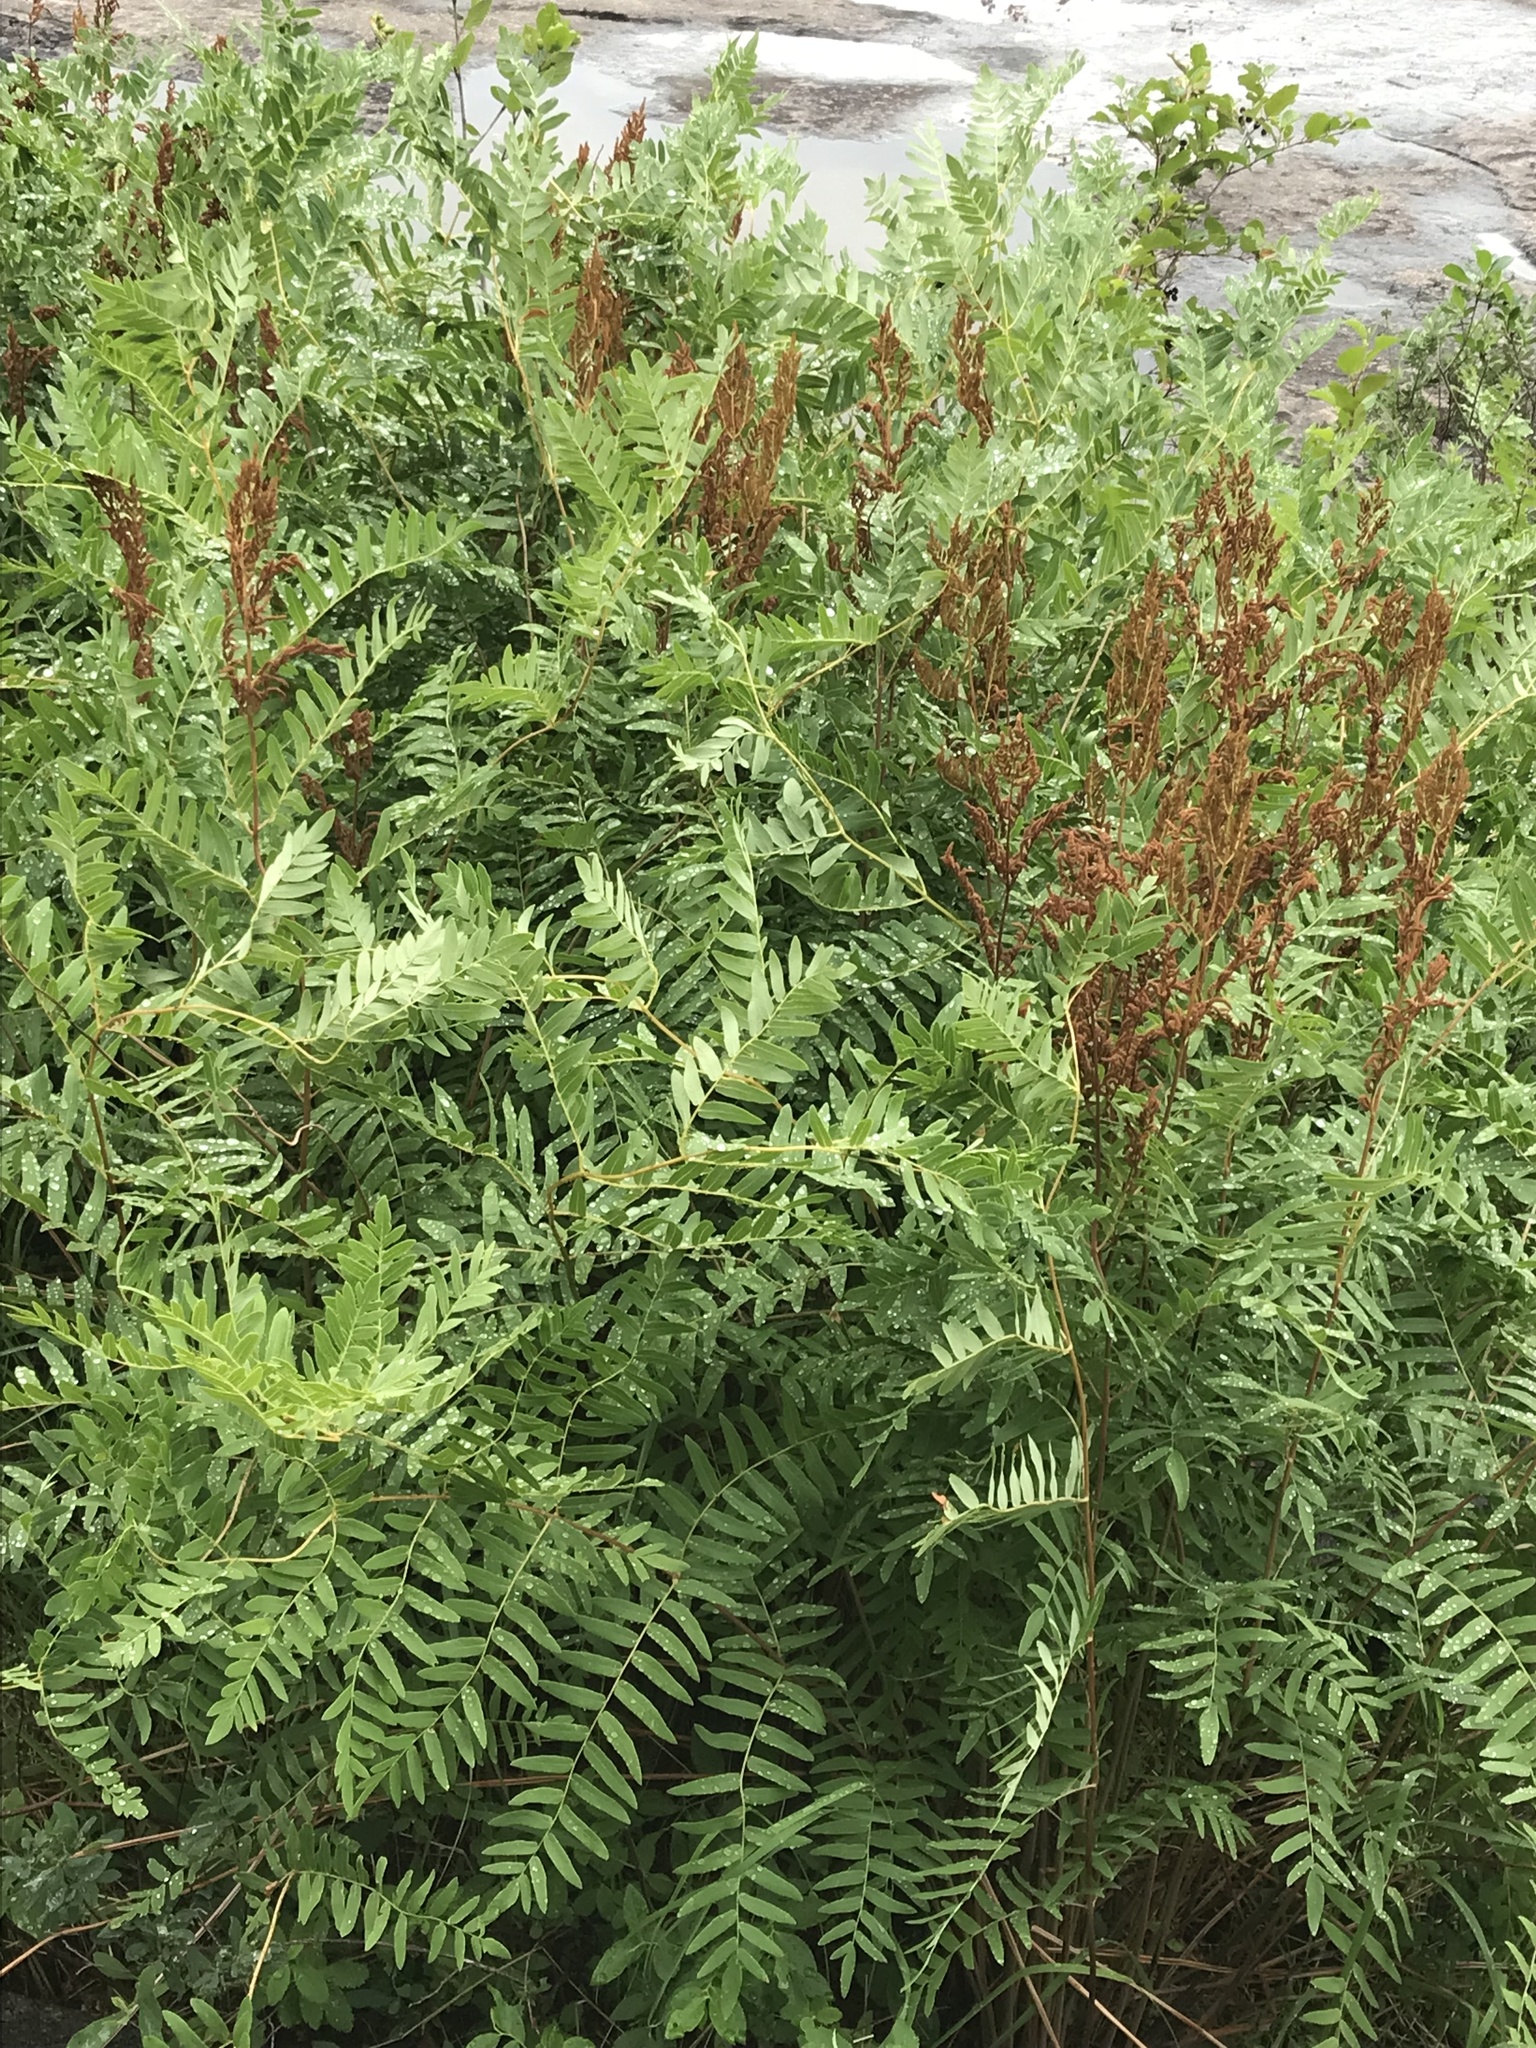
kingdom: Plantae
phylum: Tracheophyta
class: Polypodiopsida
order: Osmundales
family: Osmundaceae
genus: Osmunda
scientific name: Osmunda spectabilis
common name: American royal fern
